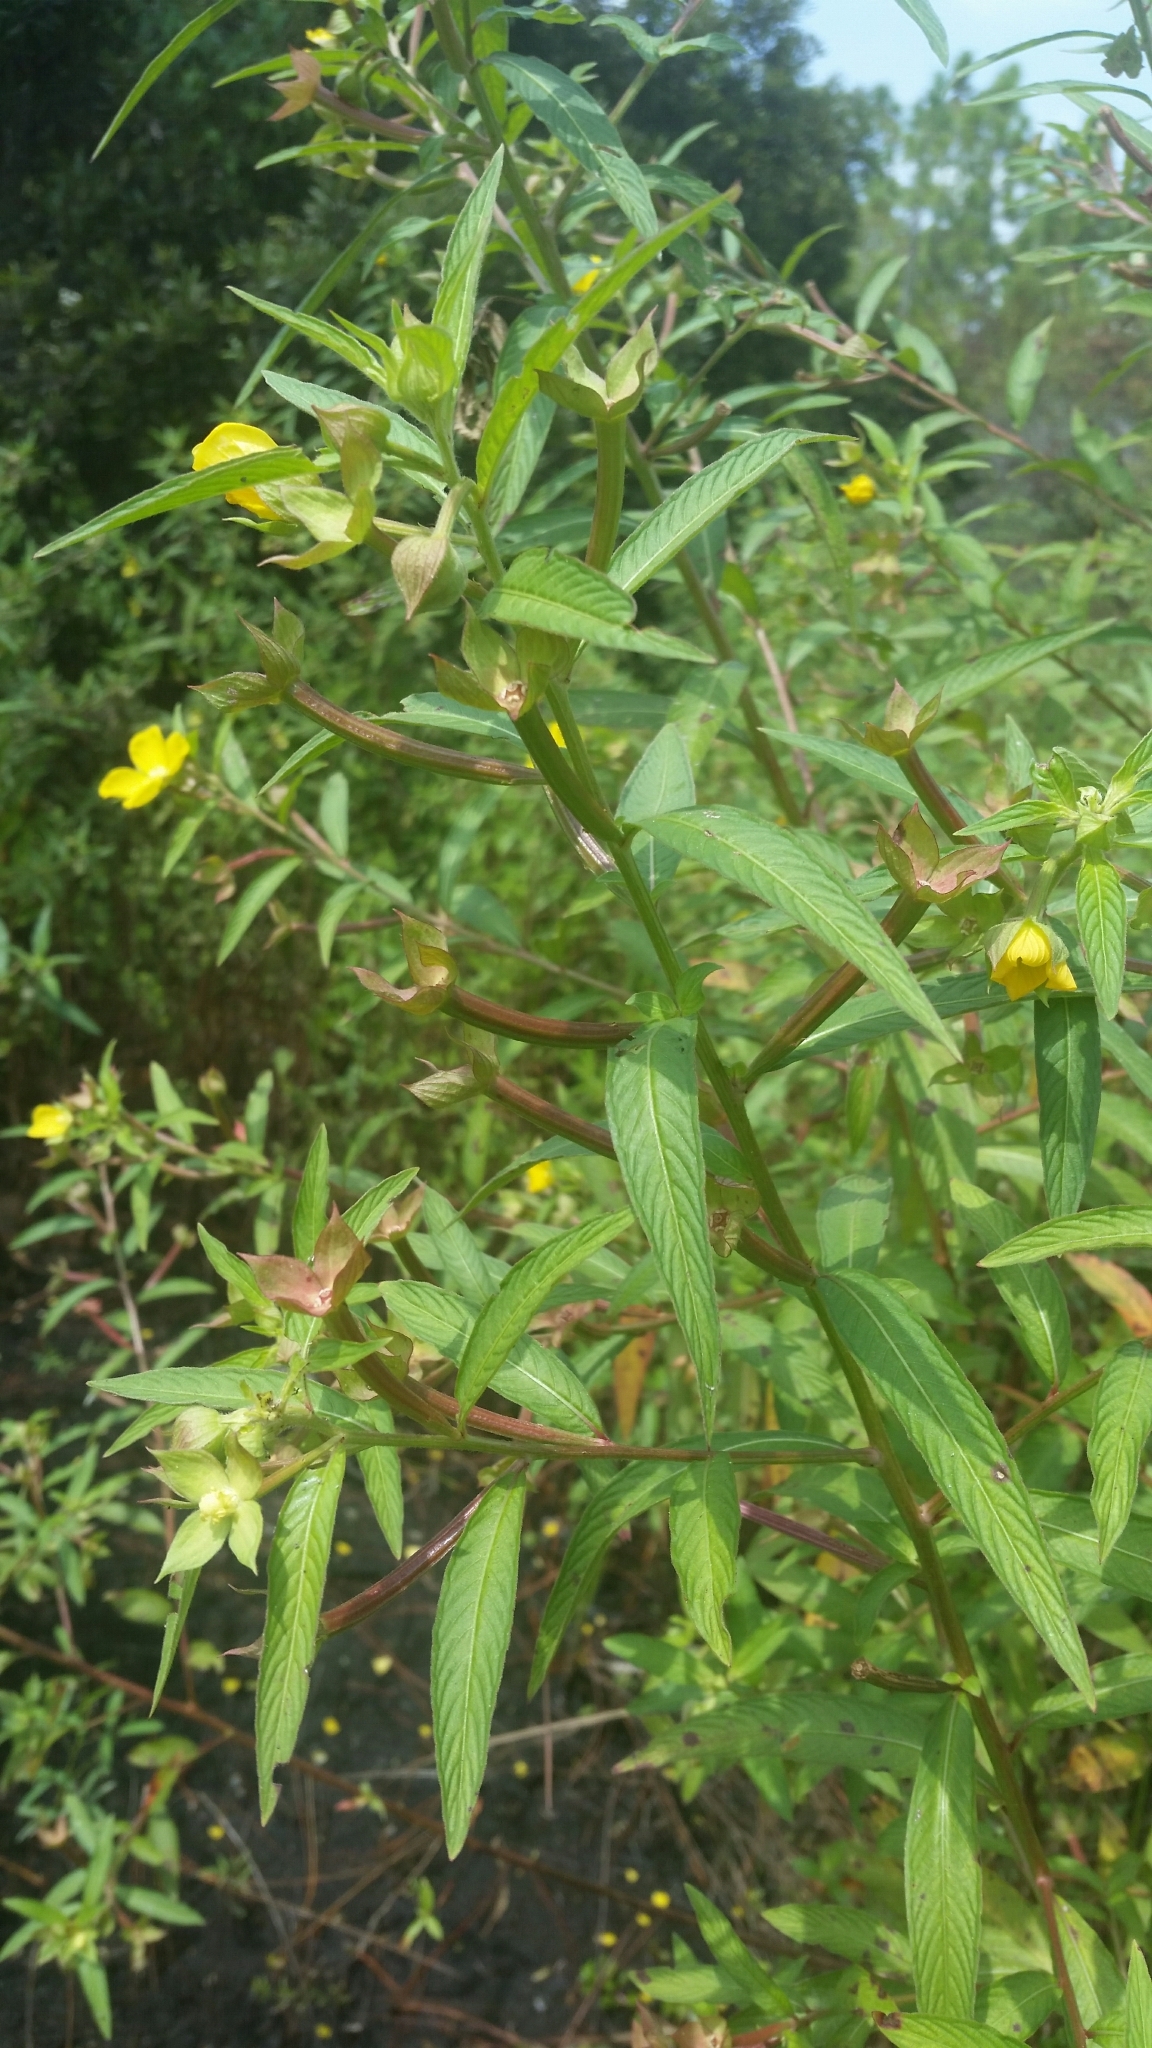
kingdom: Plantae
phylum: Tracheophyta
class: Magnoliopsida
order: Myrtales
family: Onagraceae
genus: Ludwigia
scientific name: Ludwigia octovalvis
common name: Water-primrose
